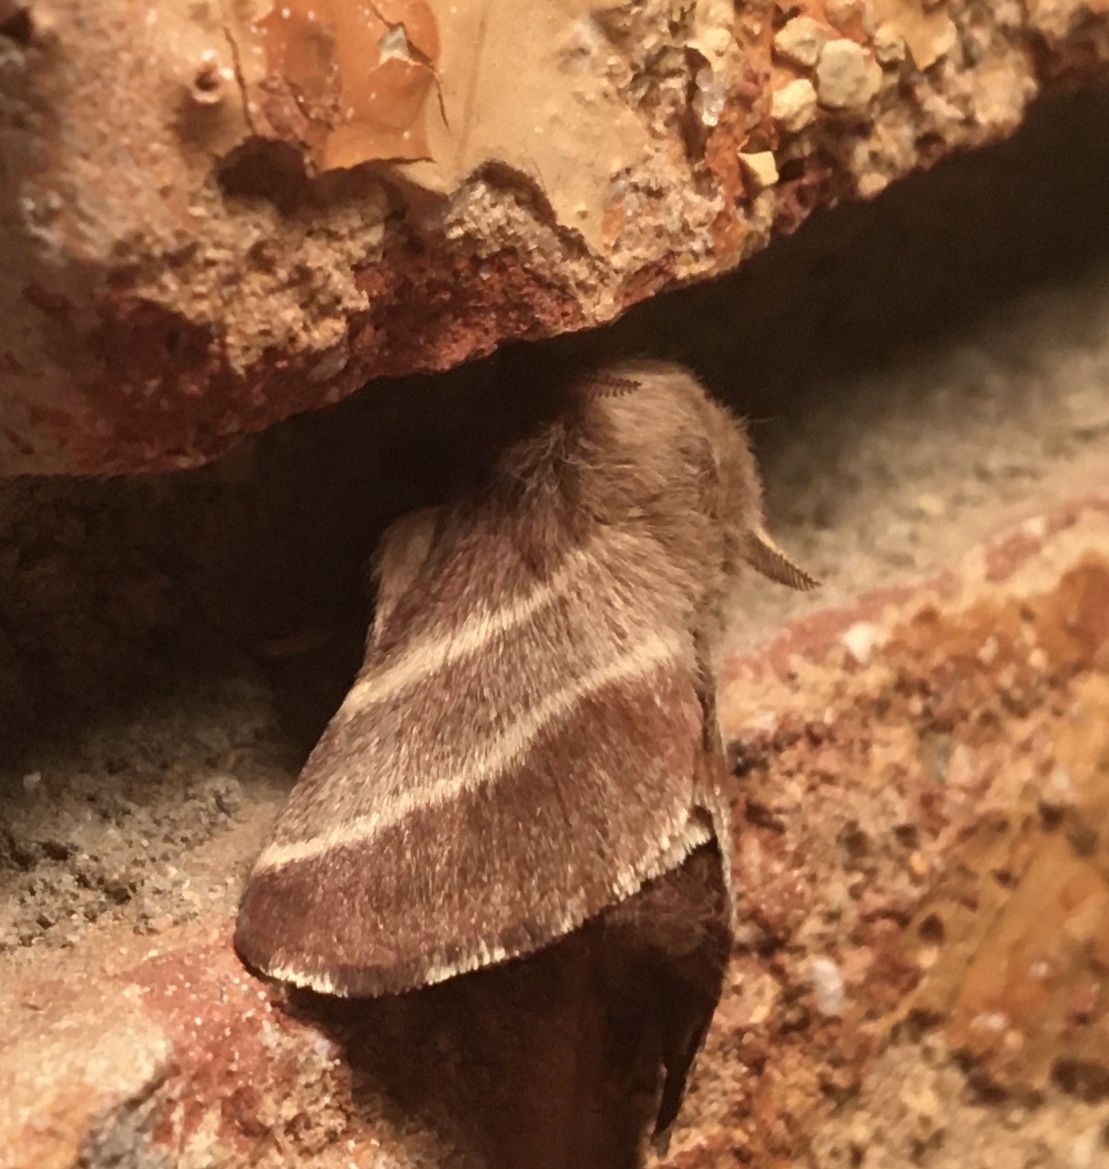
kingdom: Animalia
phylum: Arthropoda
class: Insecta
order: Lepidoptera
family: Lasiocampidae
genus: Malacosoma
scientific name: Malacosoma americana
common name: Eastern tent caterpillar moth
